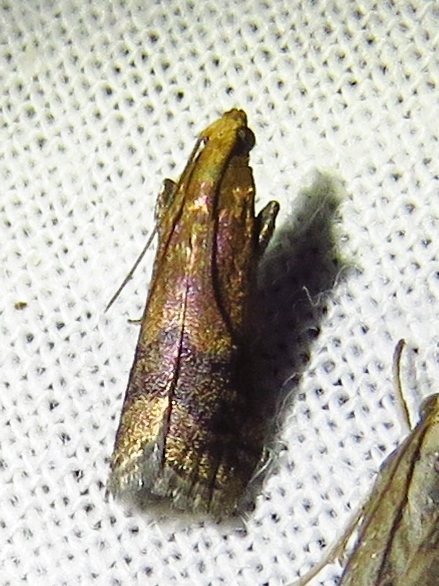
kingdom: Animalia
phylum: Arthropoda
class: Insecta
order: Lepidoptera
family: Pyralidae
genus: Eulogia
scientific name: Eulogia ochrifrontella
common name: Broad-banded eulogia moth
